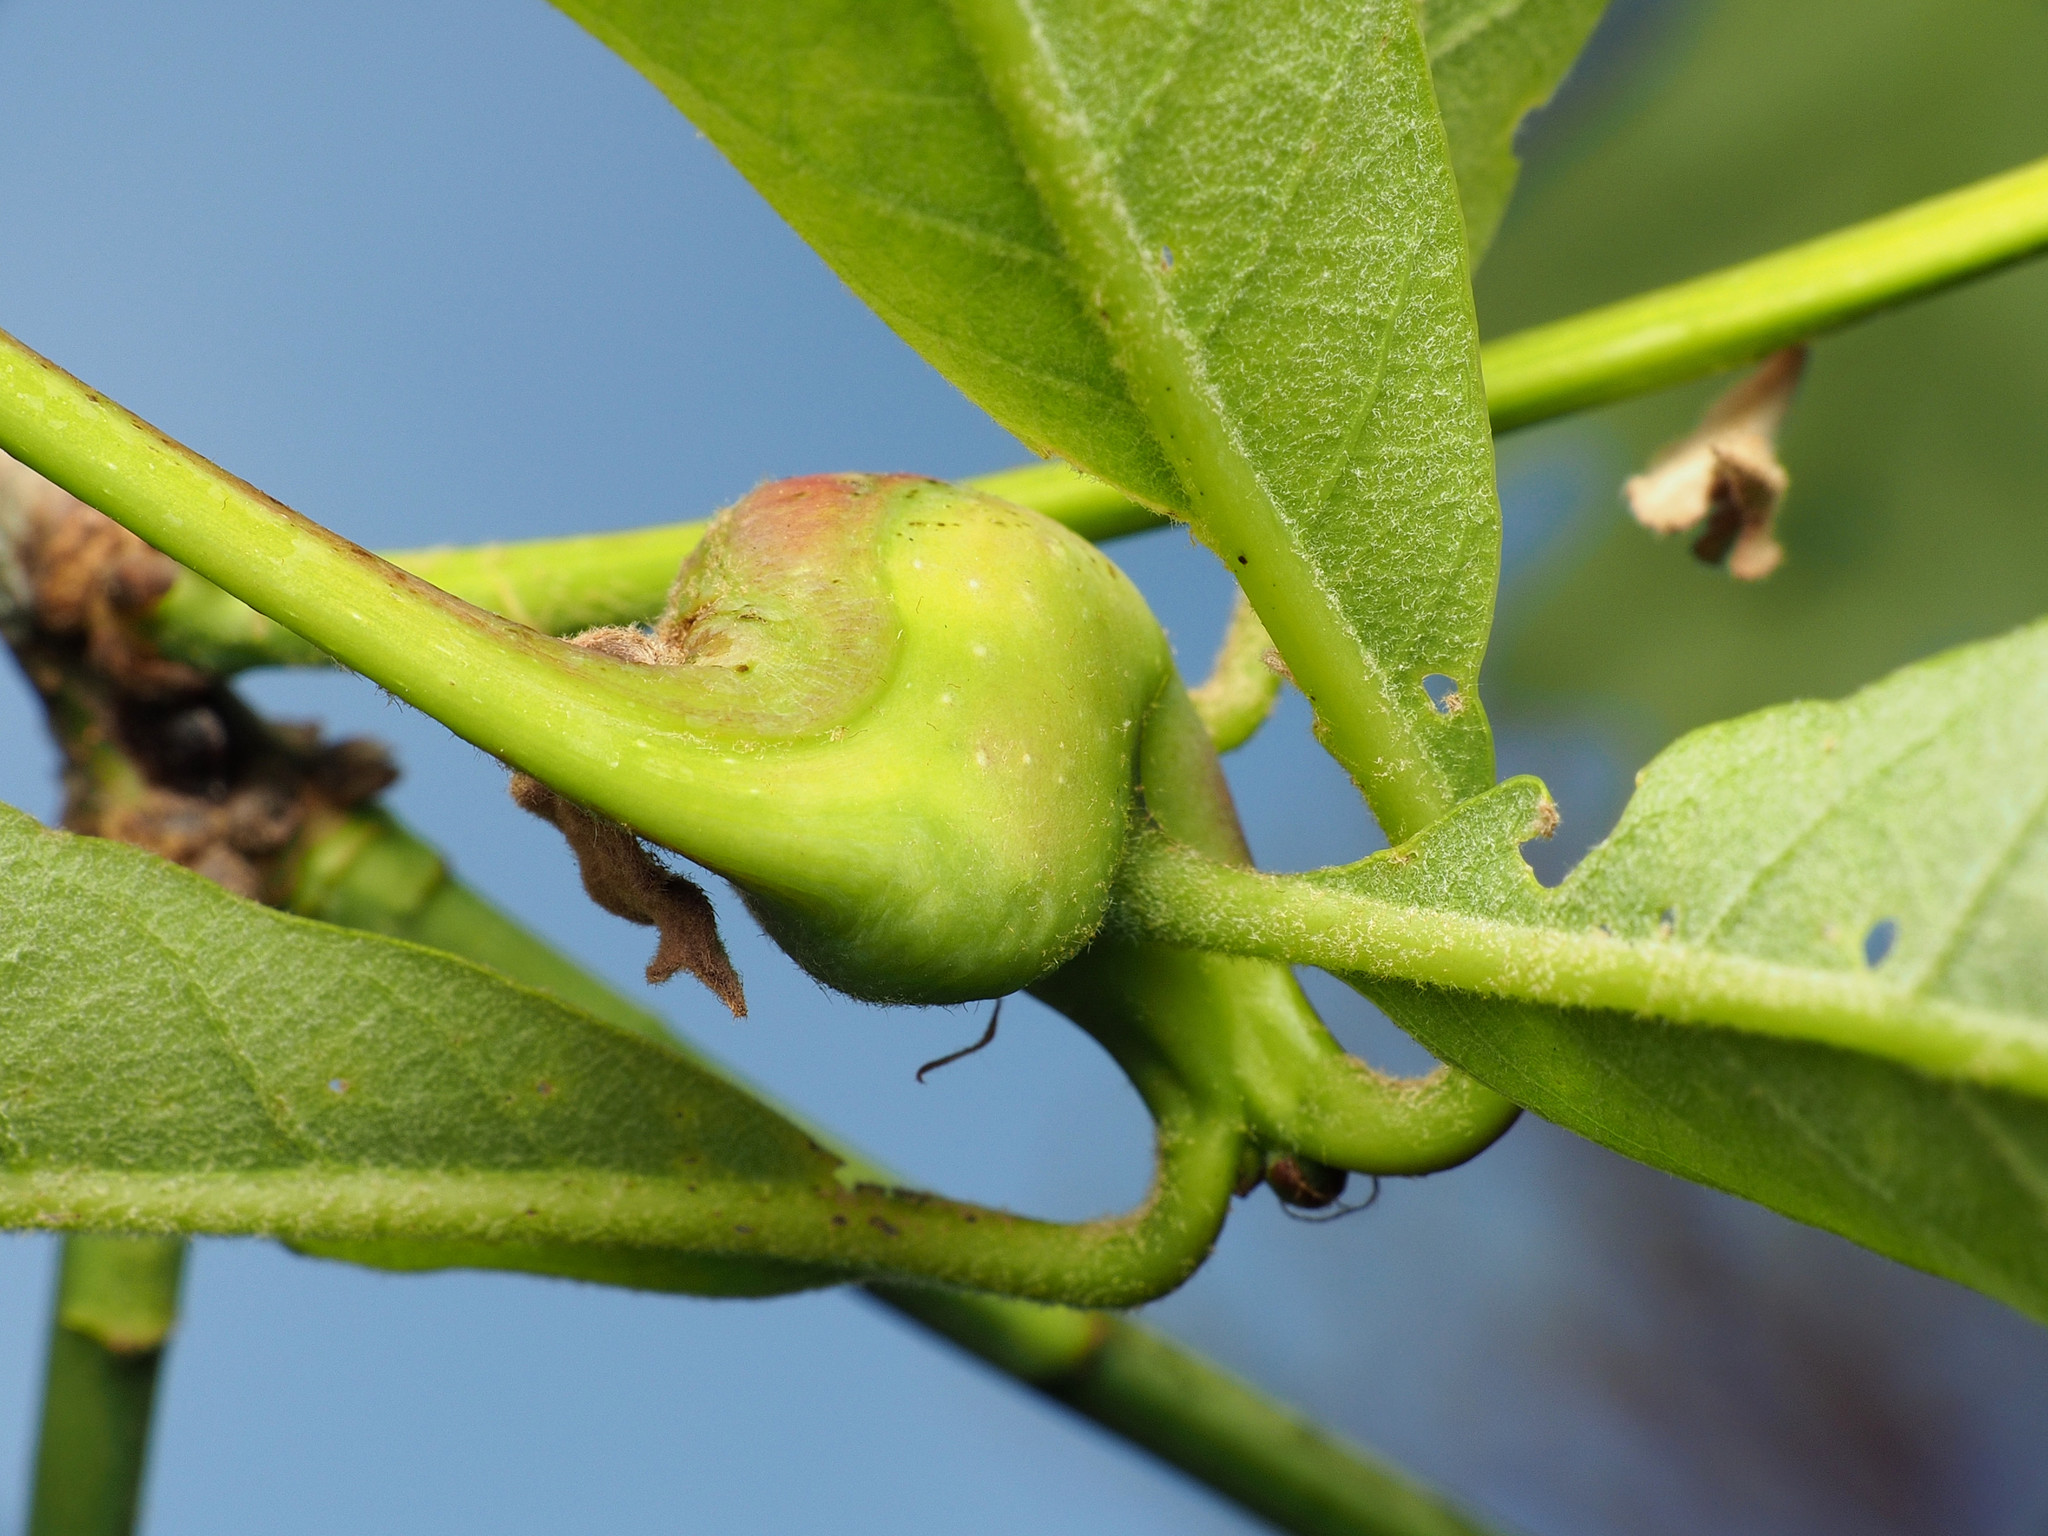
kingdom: Animalia
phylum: Arthropoda
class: Insecta
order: Hymenoptera
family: Cynipidae
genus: Callirhytis
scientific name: Callirhytis clavula
